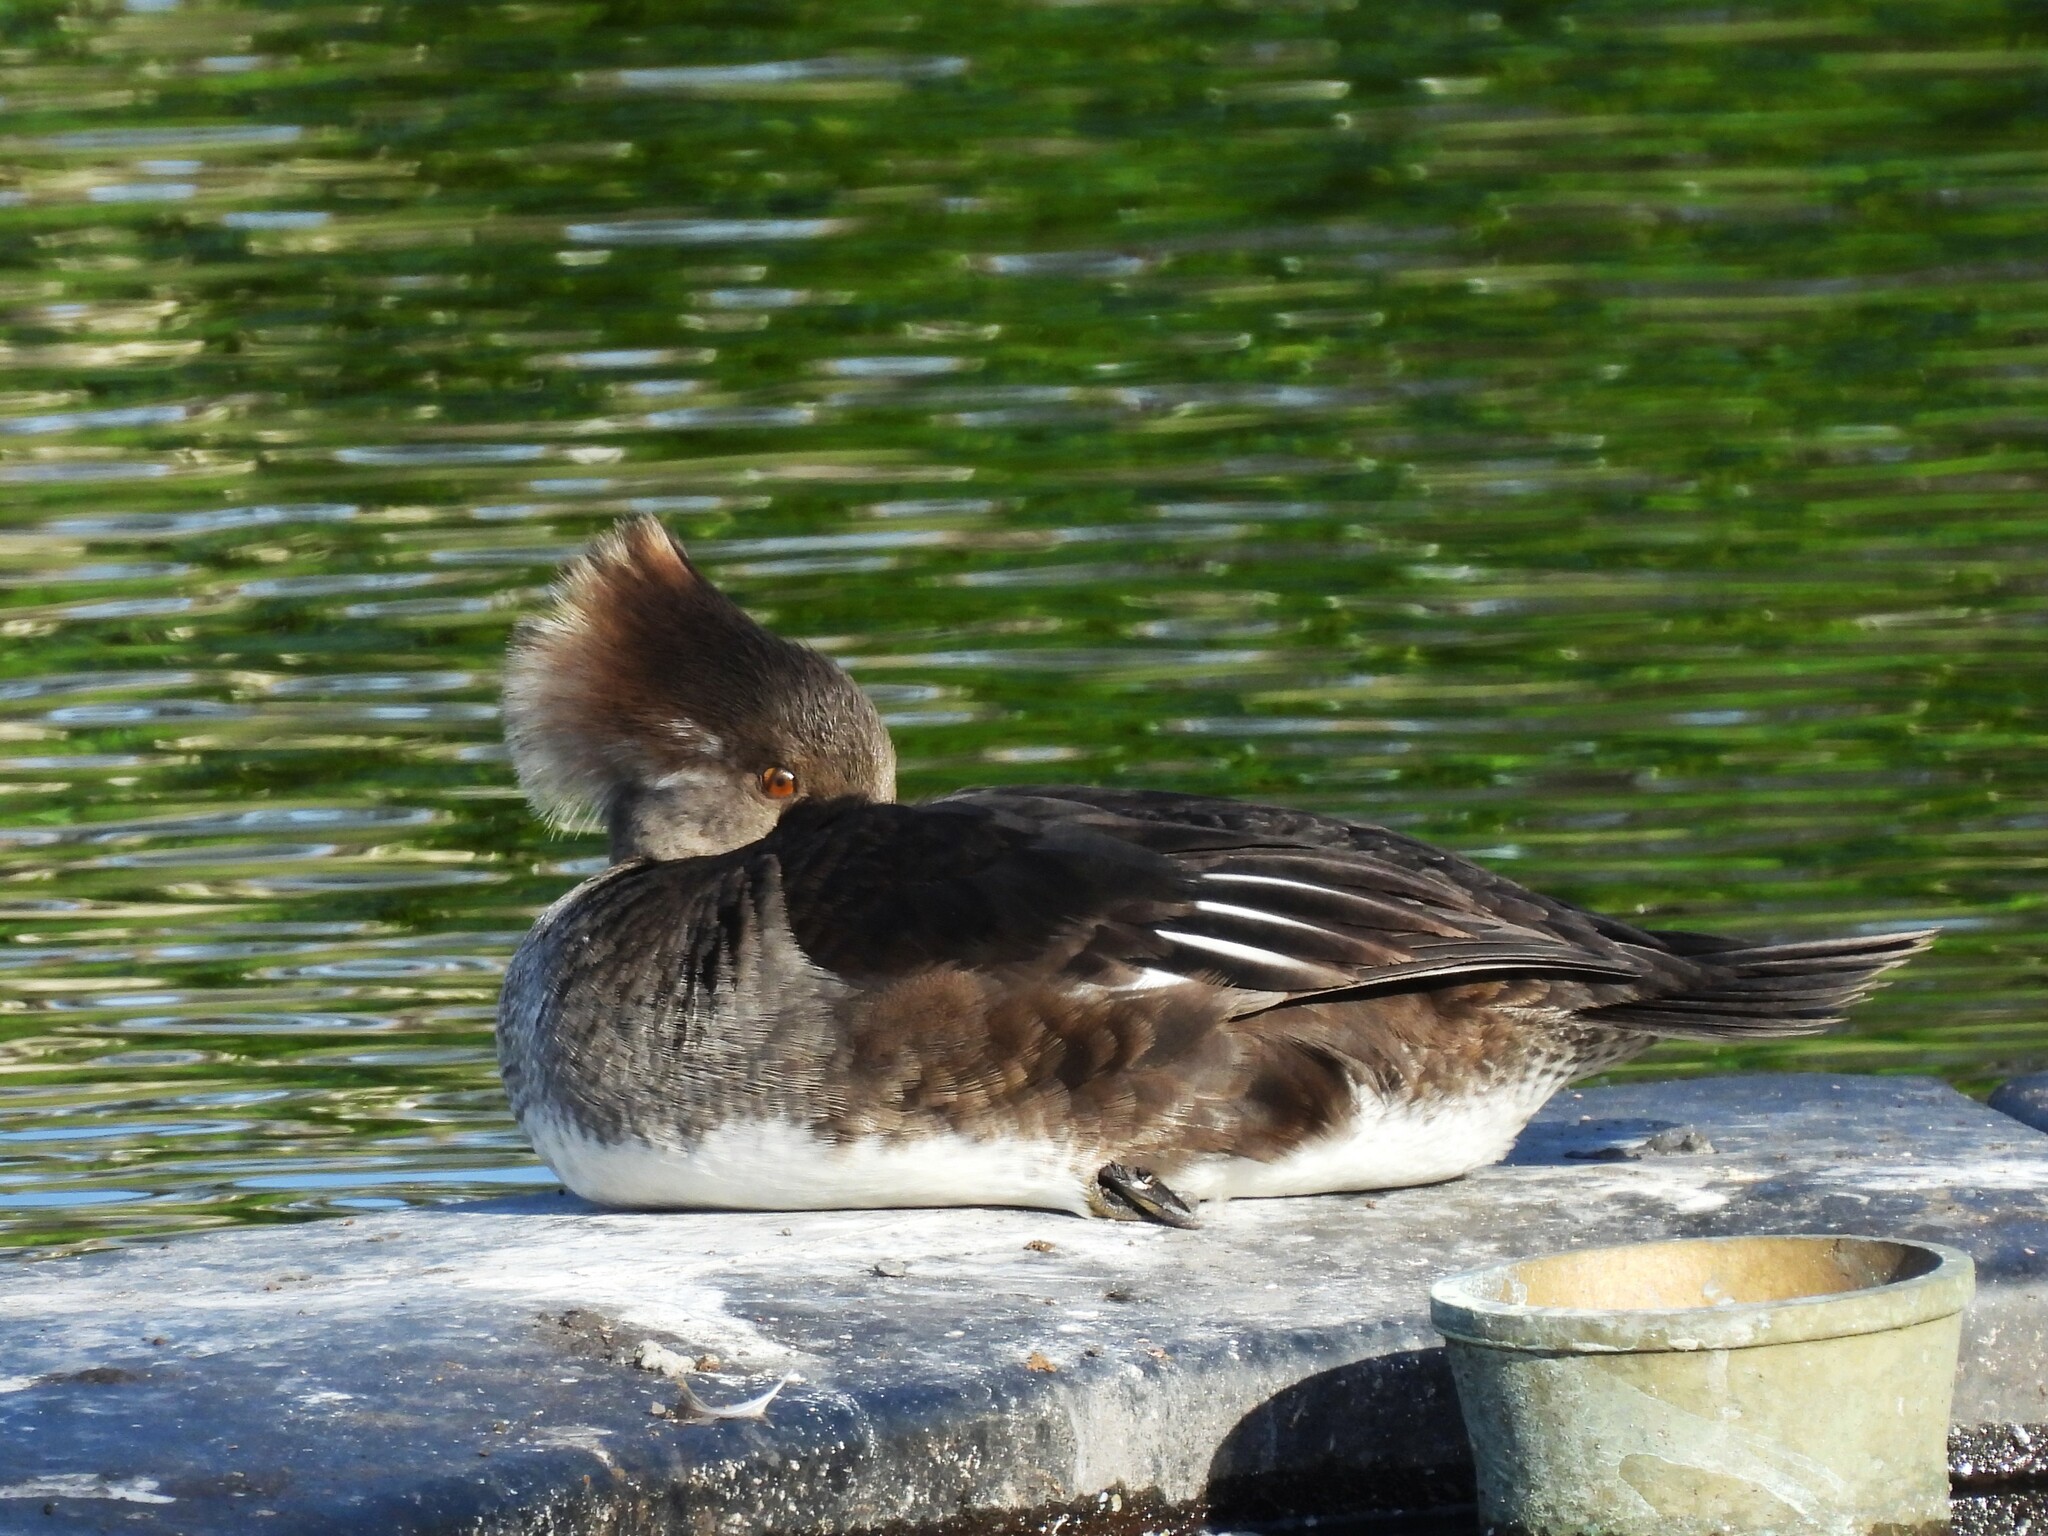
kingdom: Animalia
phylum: Chordata
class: Aves
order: Anseriformes
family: Anatidae
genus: Lophodytes
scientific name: Lophodytes cucullatus
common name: Hooded merganser
